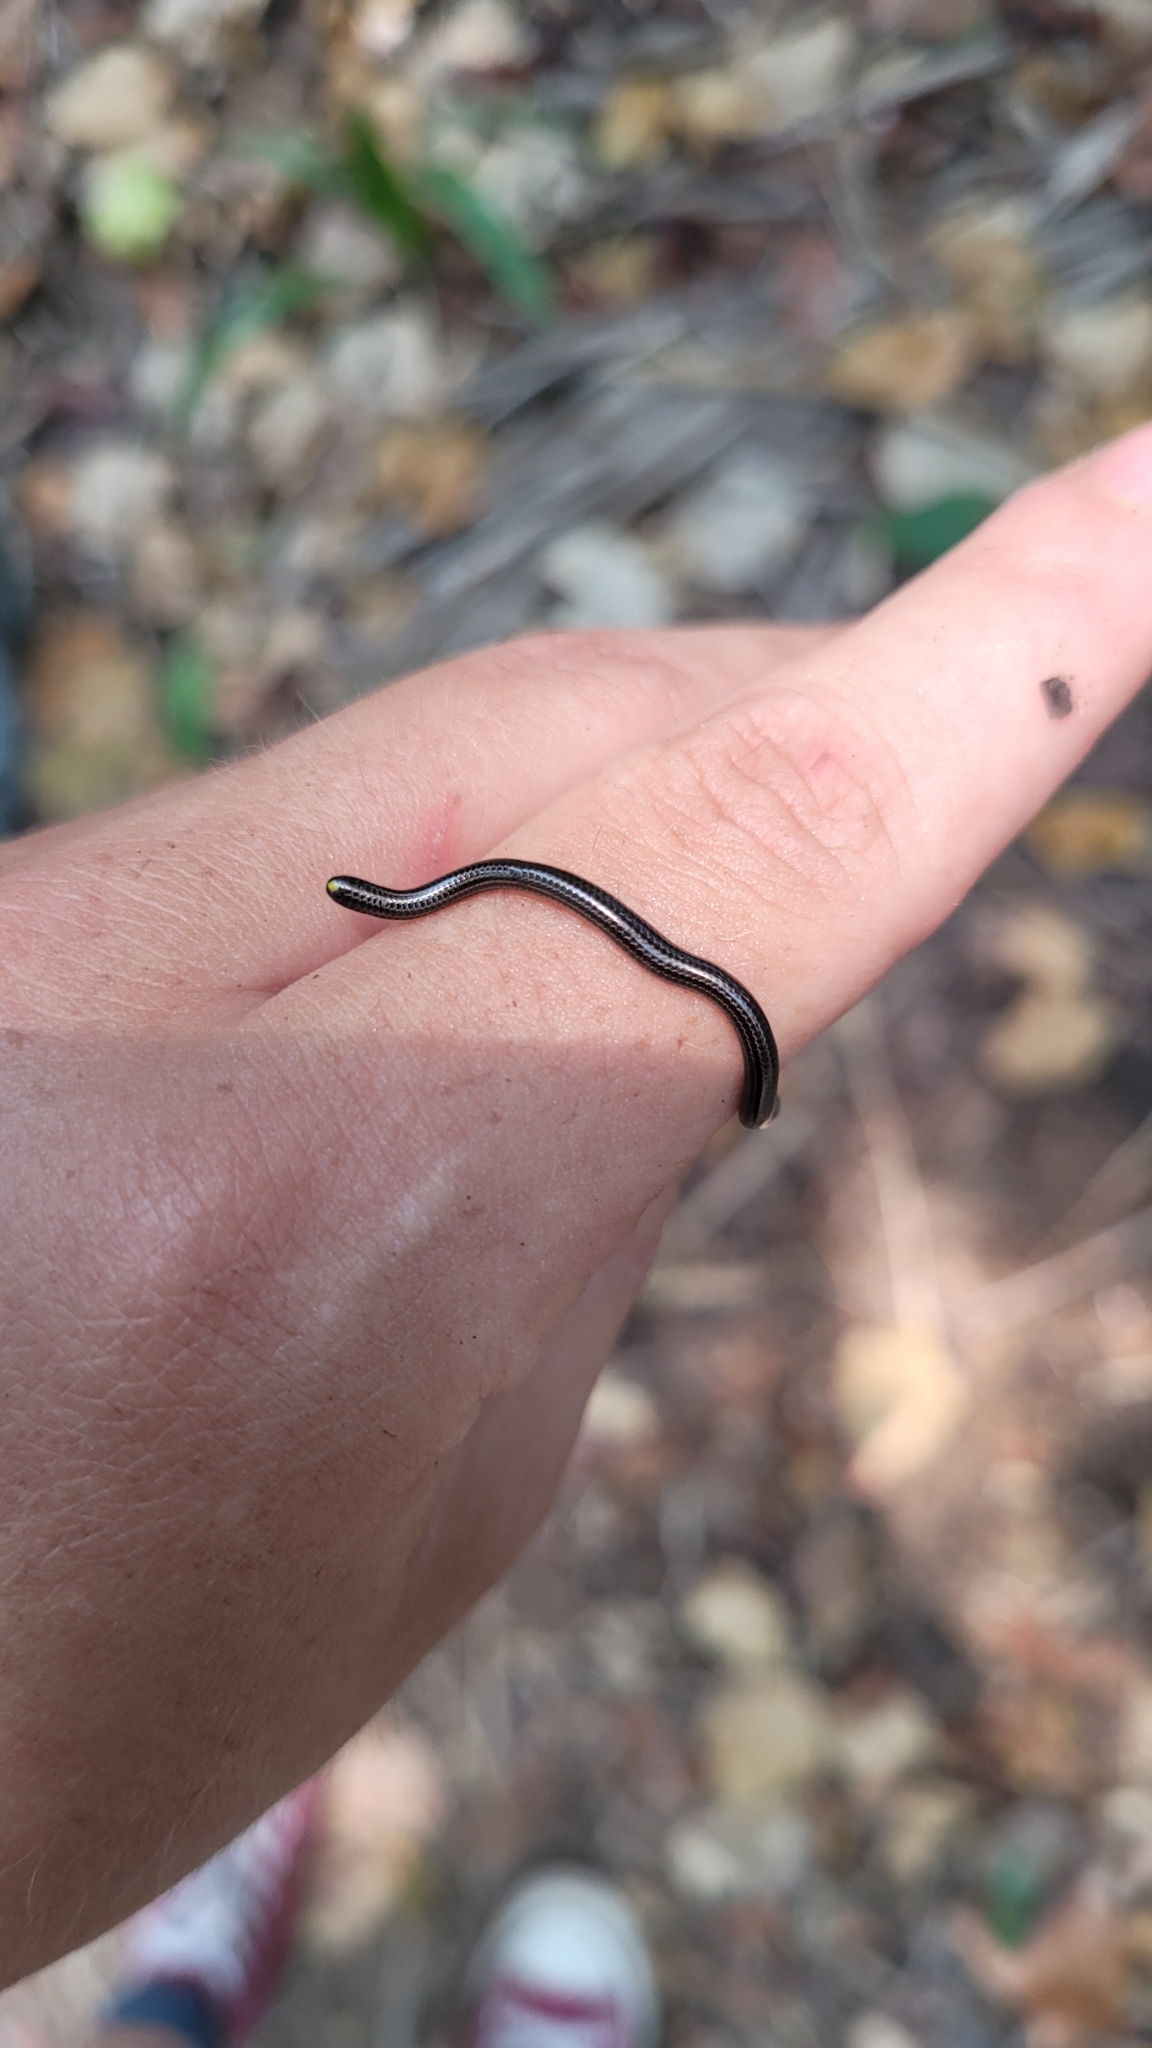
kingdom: Animalia
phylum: Chordata
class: Squamata
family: Leptotyphlopidae
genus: Epictia
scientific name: Epictia magnamaculata
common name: Black blind snake
